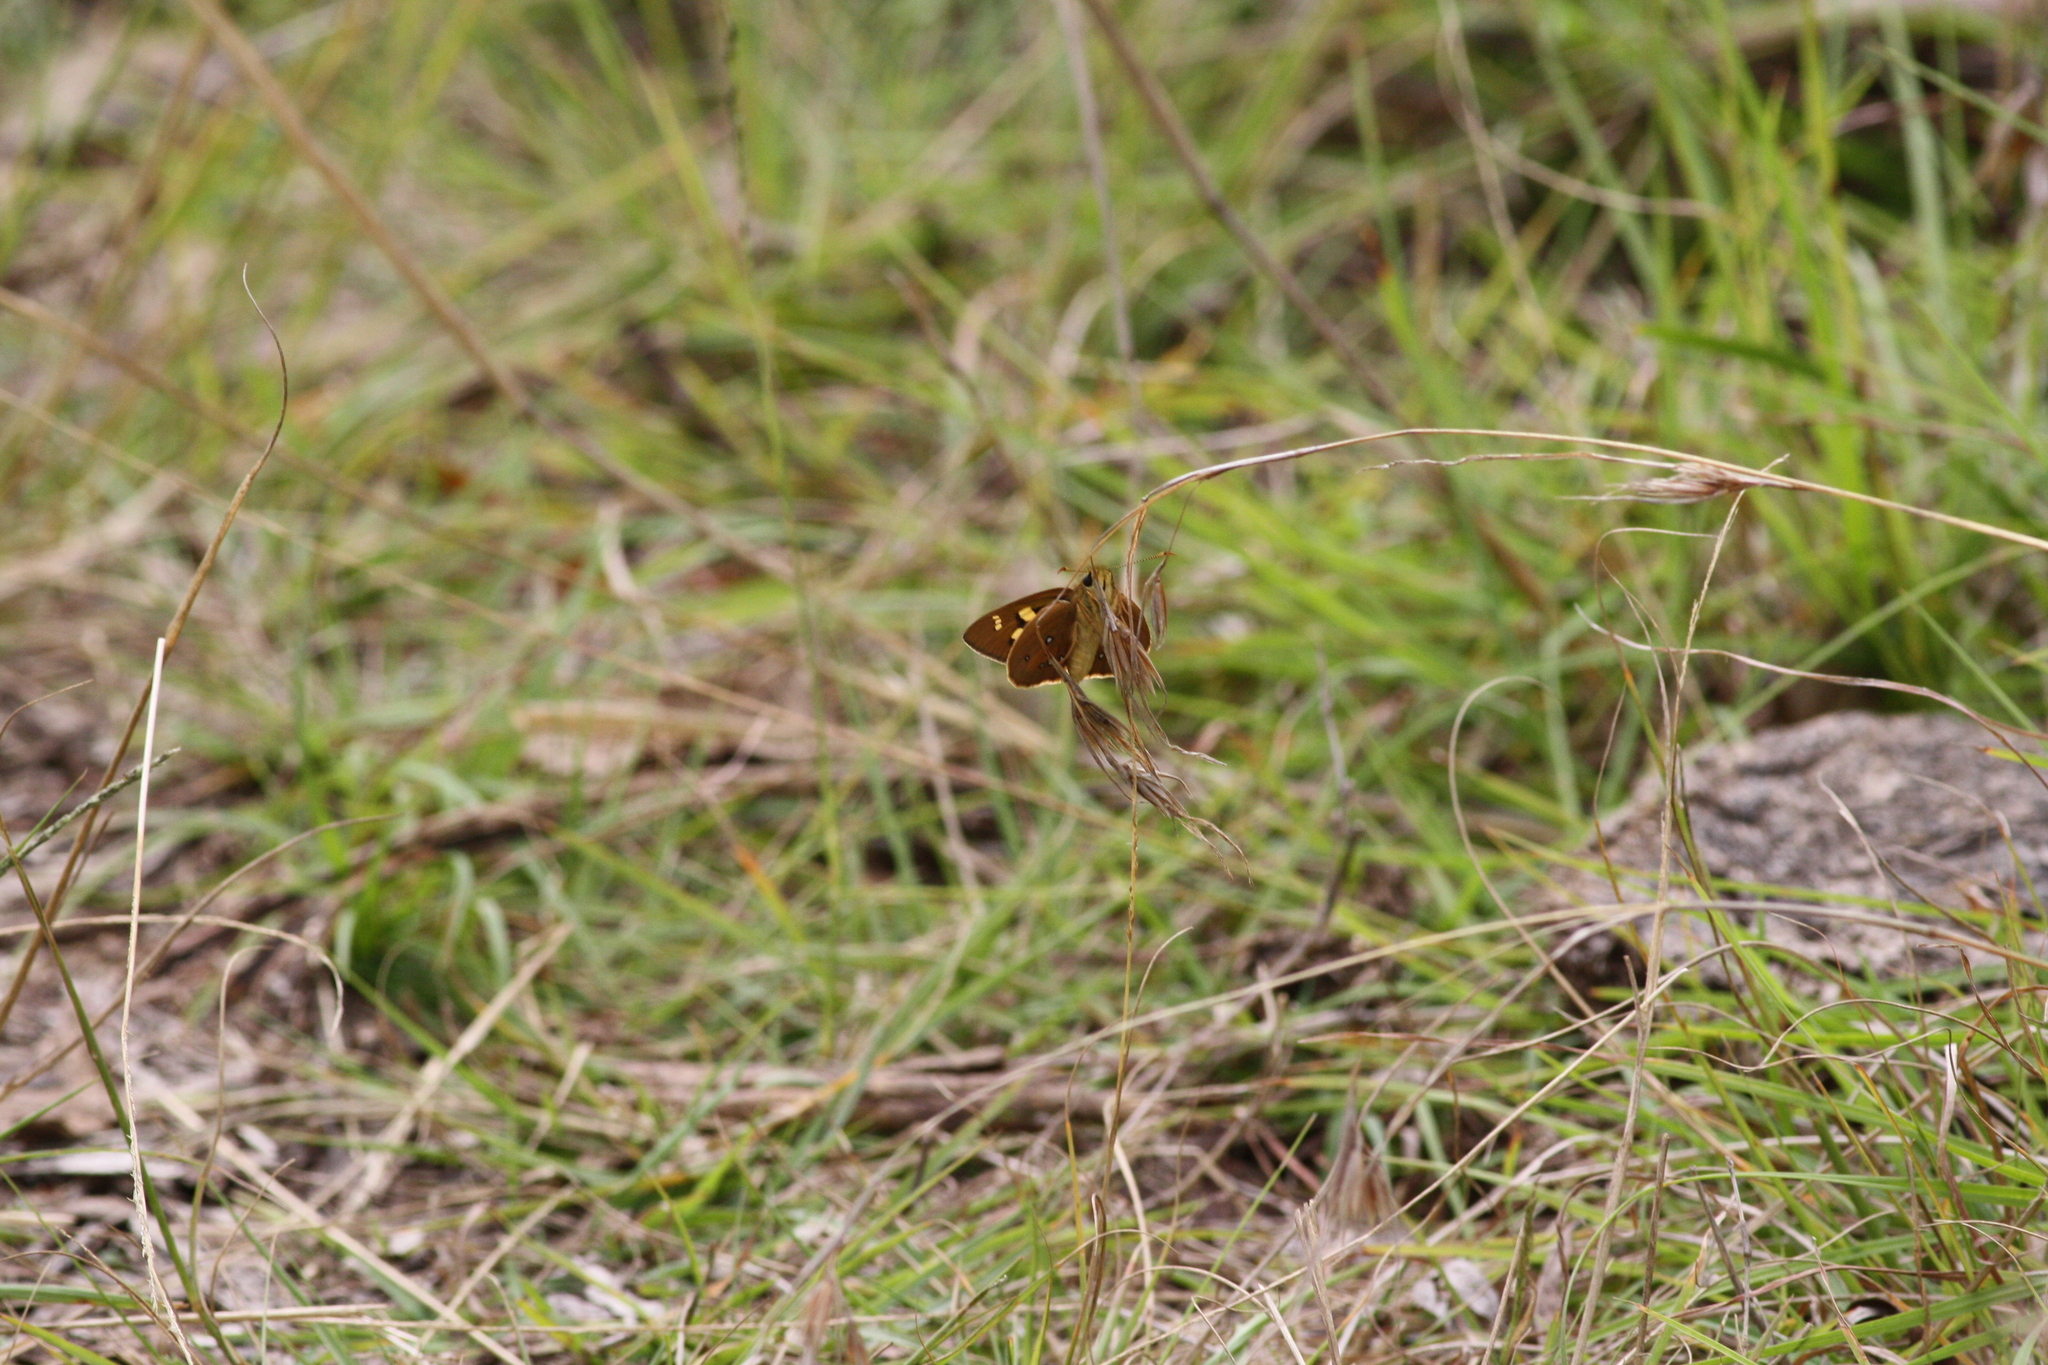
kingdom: Animalia
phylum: Arthropoda
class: Insecta
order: Lepidoptera
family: Hesperiidae
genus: Trapezites
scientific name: Trapezites eliena
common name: Eliena skipper
